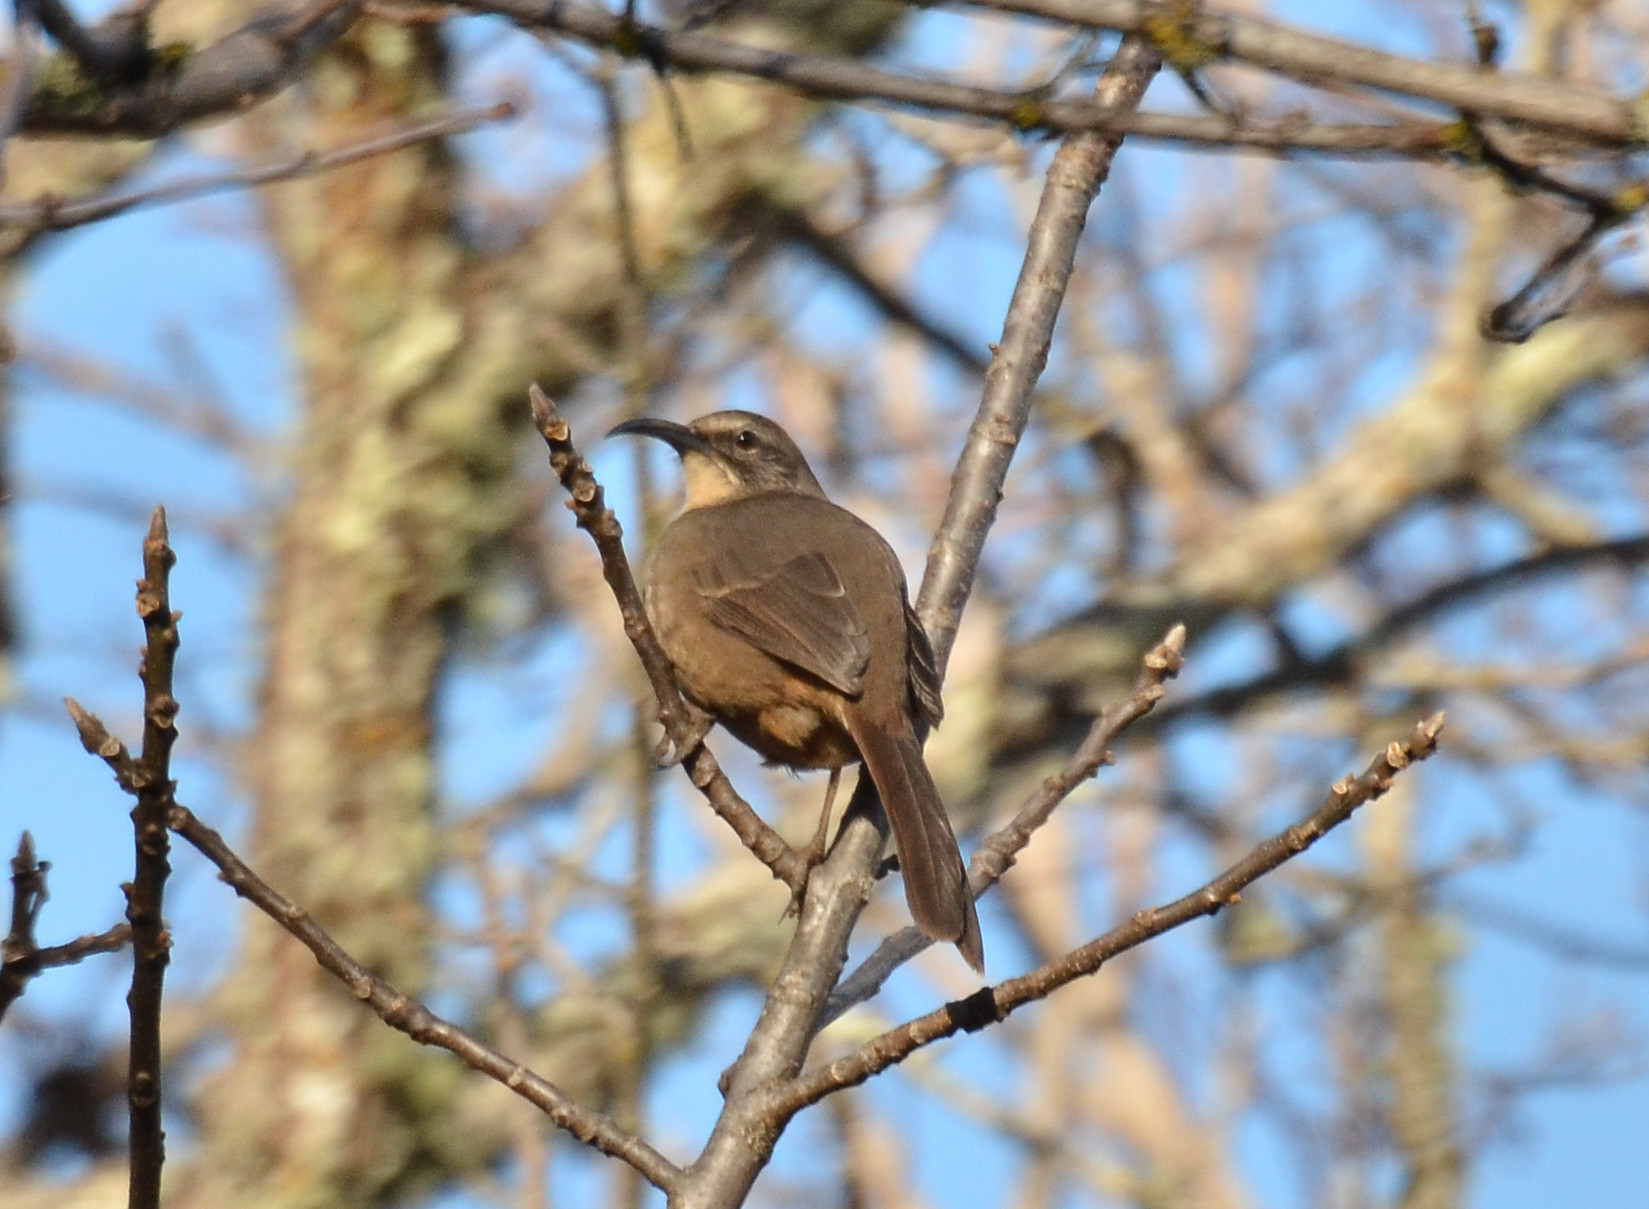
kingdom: Animalia
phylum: Chordata
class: Aves
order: Passeriformes
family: Mimidae
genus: Toxostoma
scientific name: Toxostoma redivivum
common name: California thrasher
